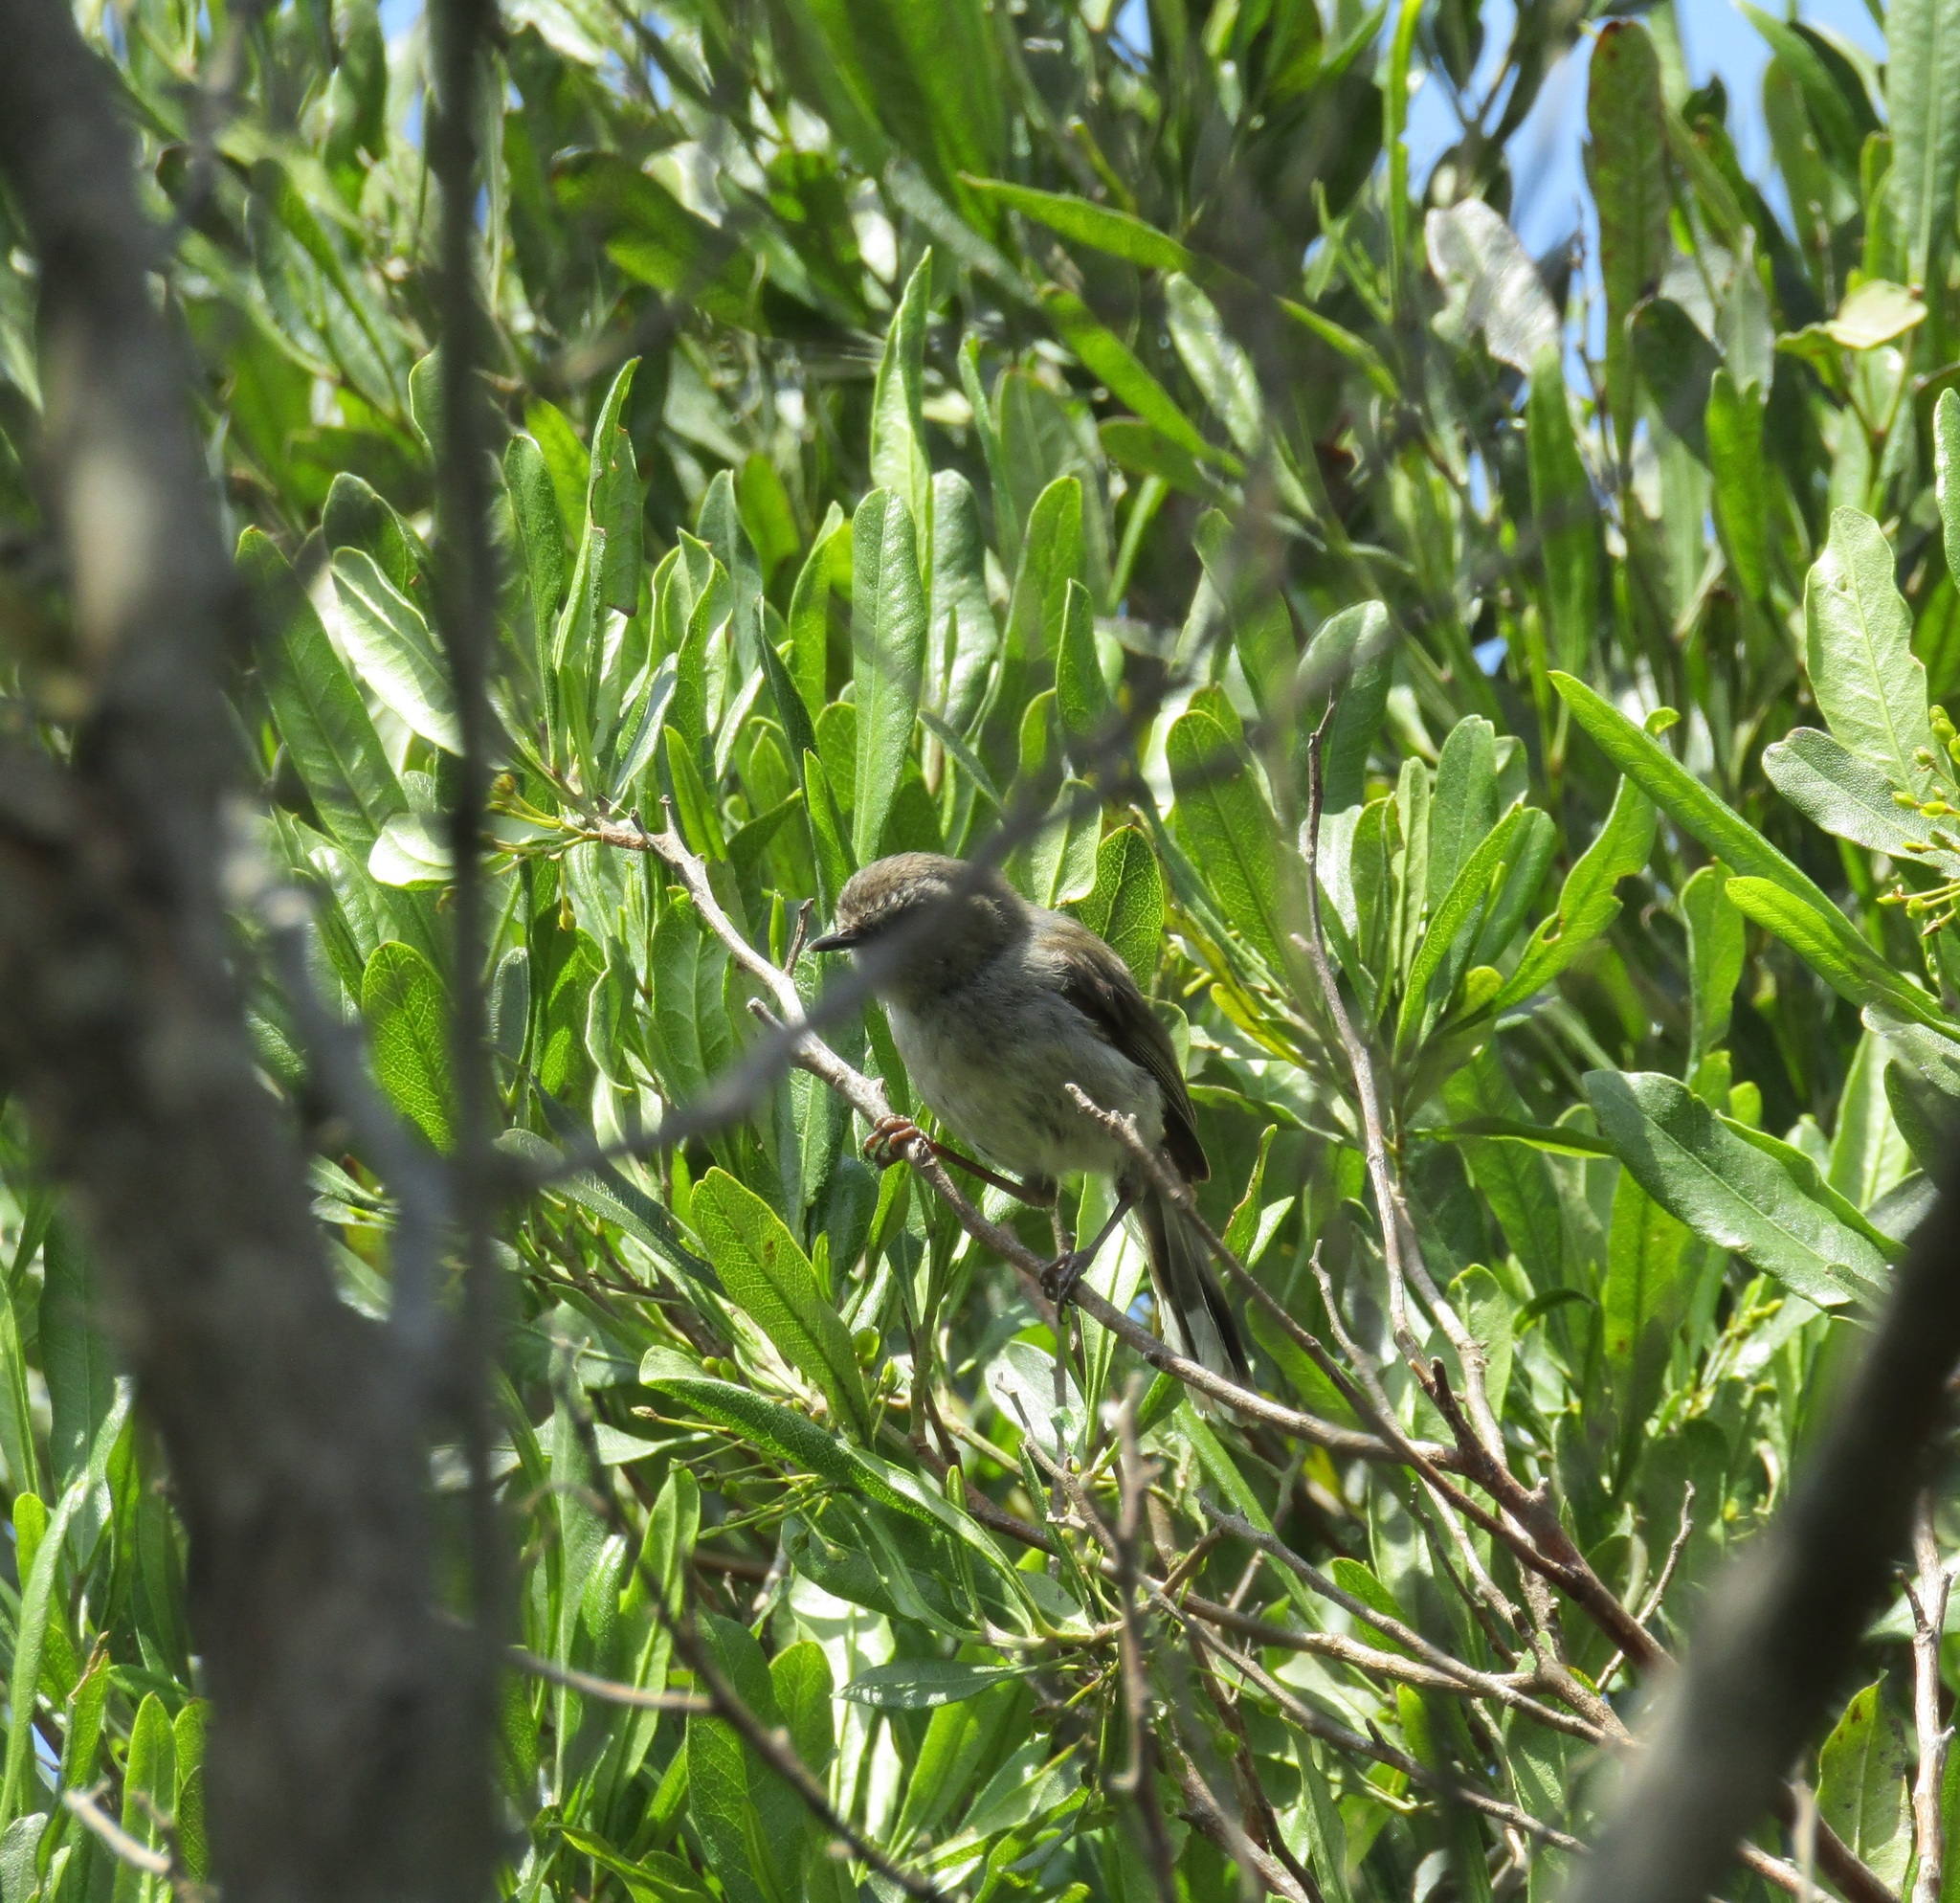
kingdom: Animalia
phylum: Chordata
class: Aves
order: Passeriformes
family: Acanthizidae
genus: Gerygone
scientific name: Gerygone igata
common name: Grey gerygone
